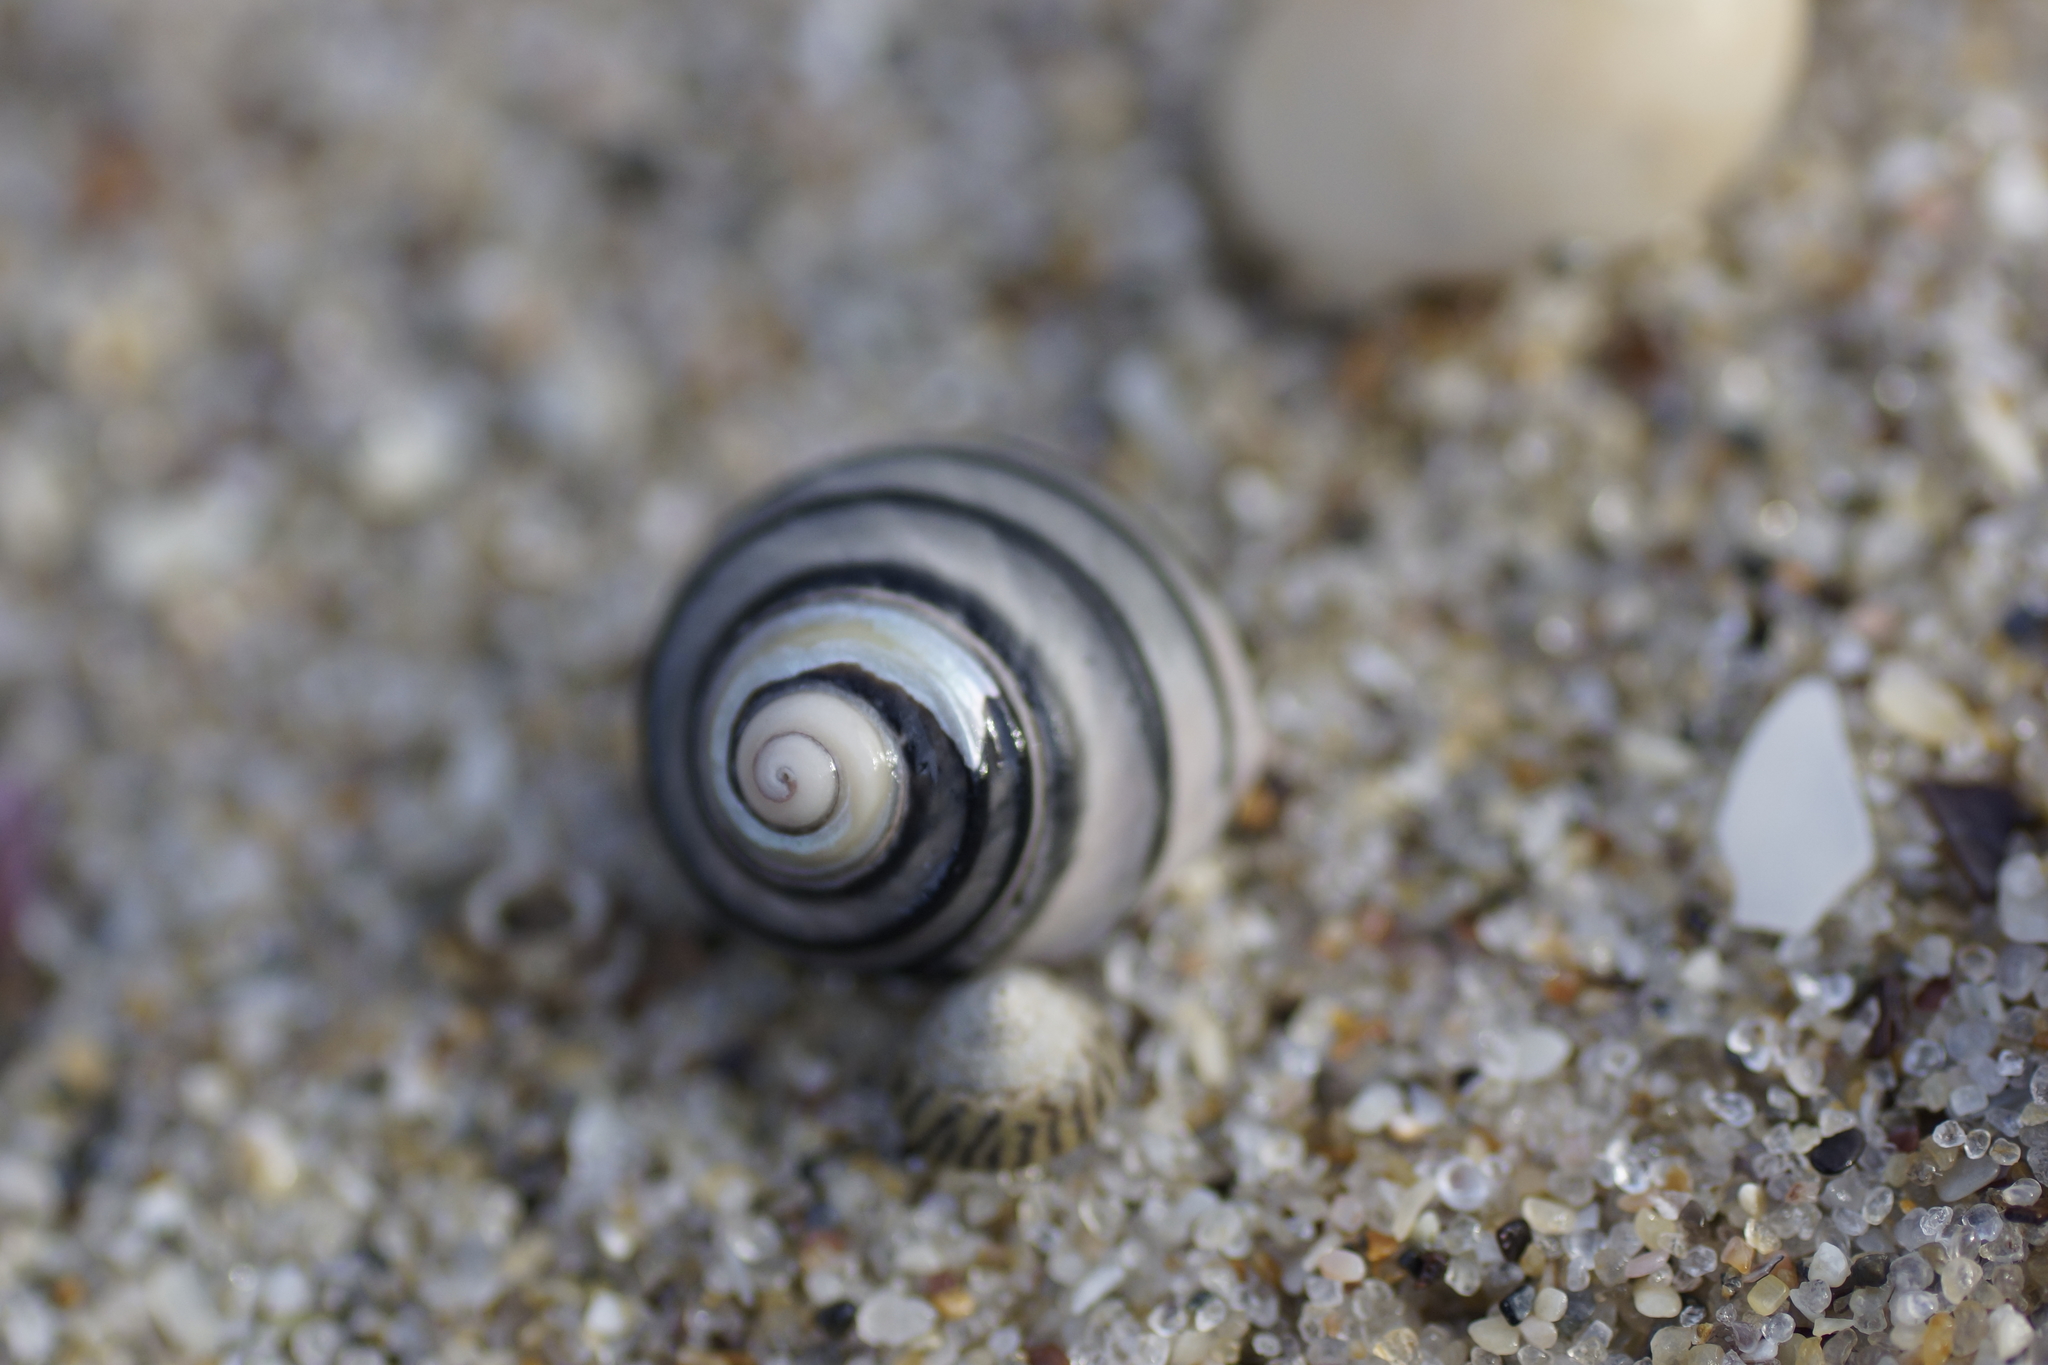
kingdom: Animalia
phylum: Mollusca
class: Gastropoda
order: Trochida
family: Trochidae
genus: Austrocochlea
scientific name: Austrocochlea constricta
